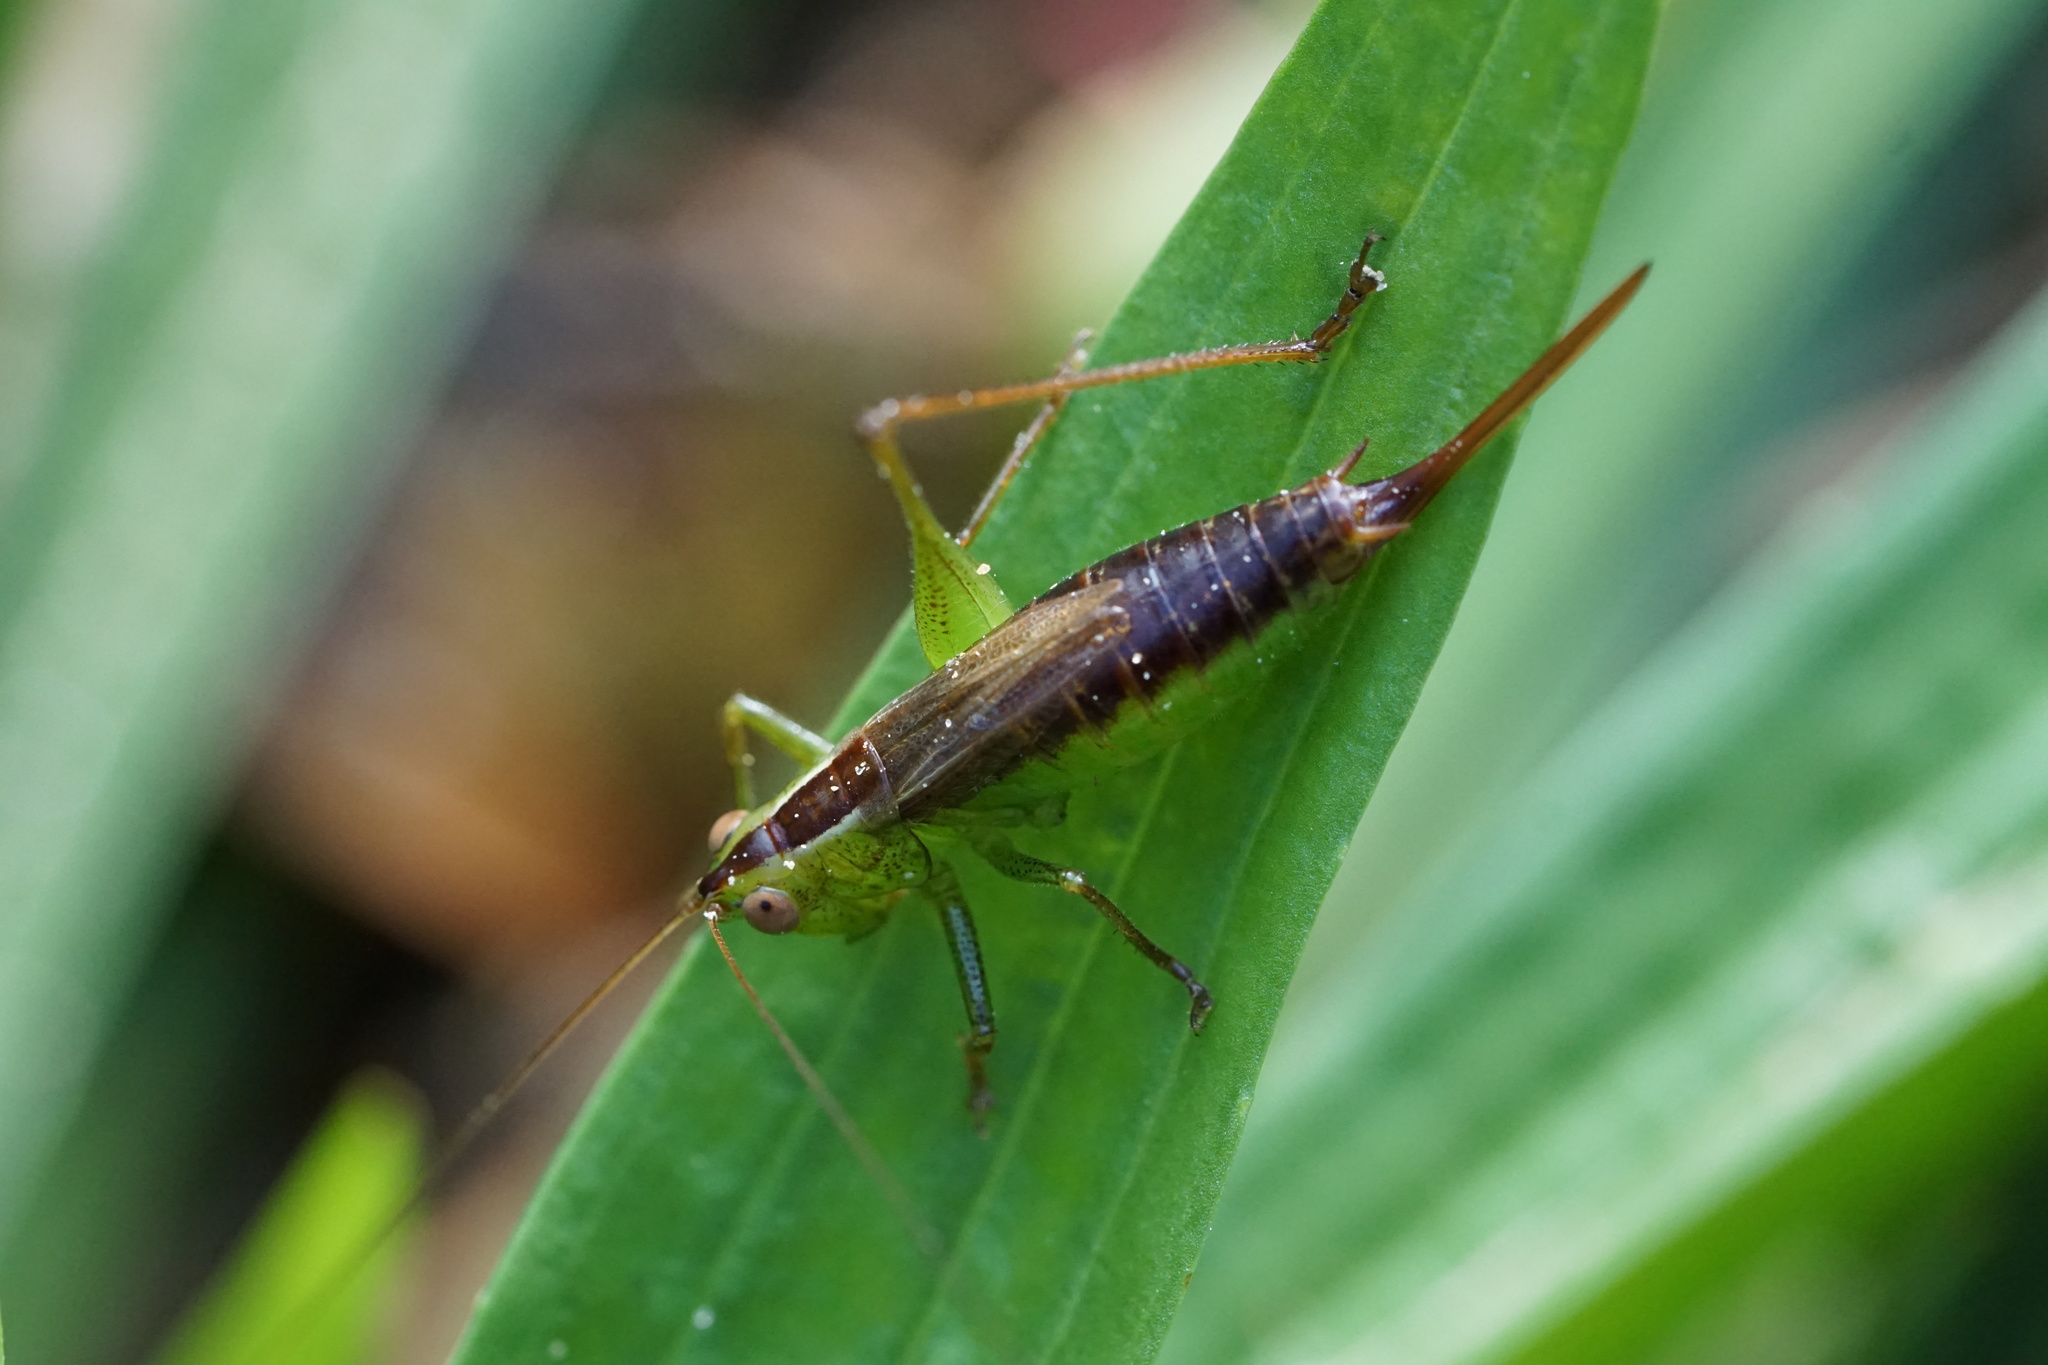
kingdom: Animalia
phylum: Arthropoda
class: Insecta
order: Orthoptera
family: Tettigoniidae
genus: Conocephalus
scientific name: Conocephalus brevipennis
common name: Short-winged meadow katydid
